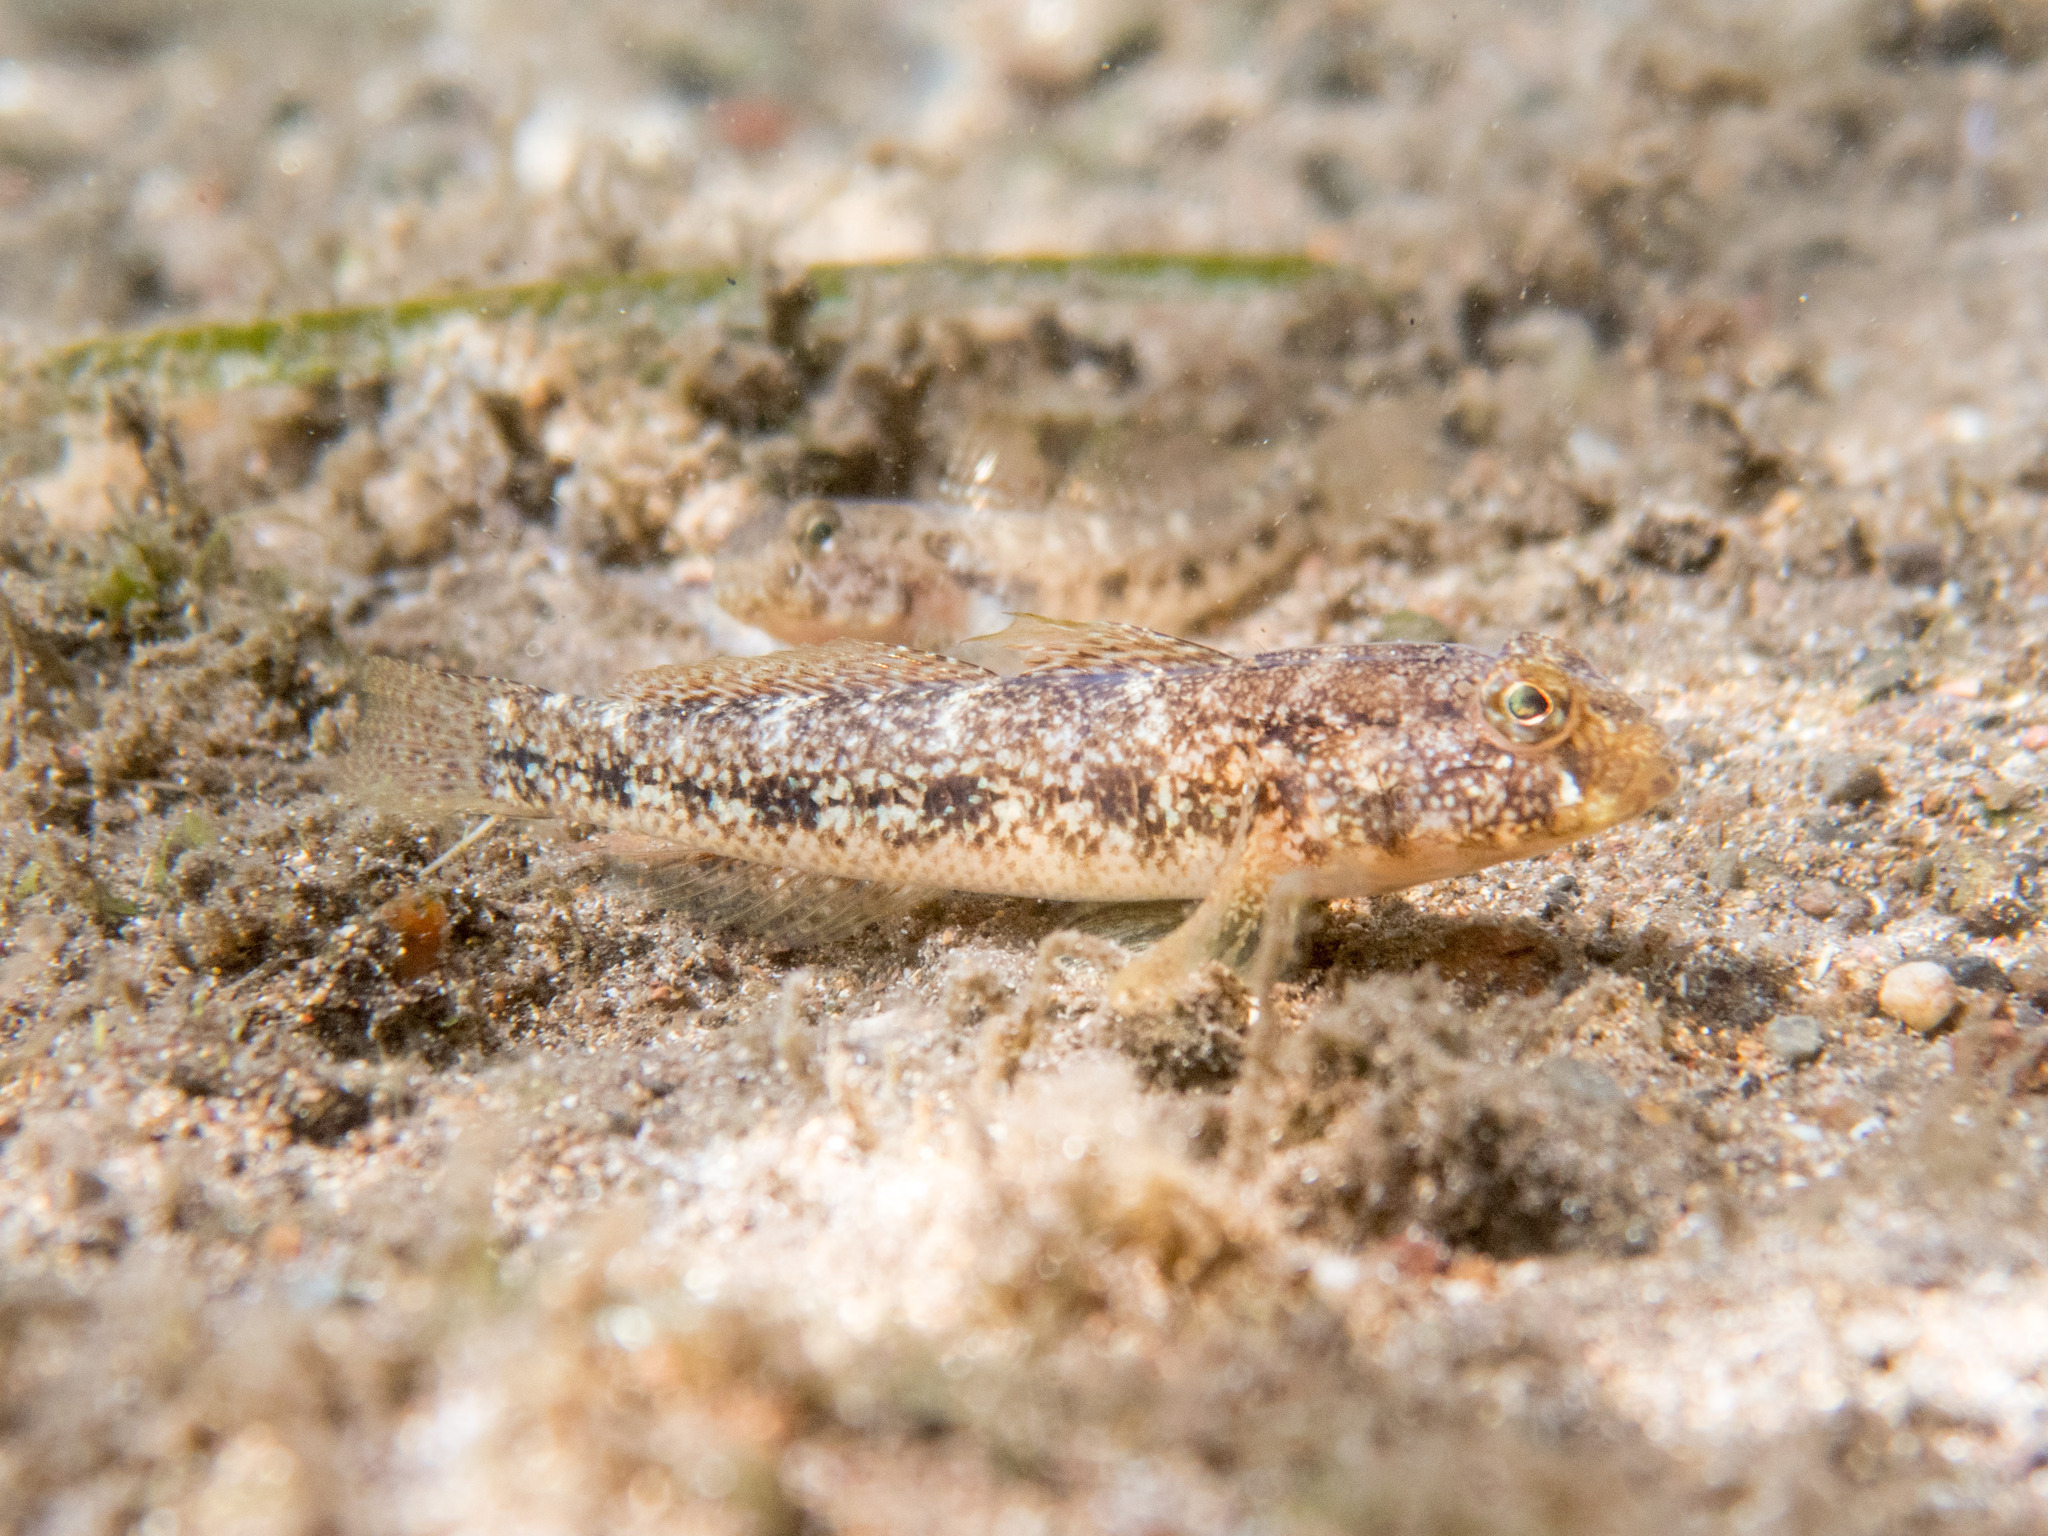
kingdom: Animalia
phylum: Chordata
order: Perciformes
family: Gobiidae
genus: Gobius
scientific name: Gobius niger
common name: Black goby
